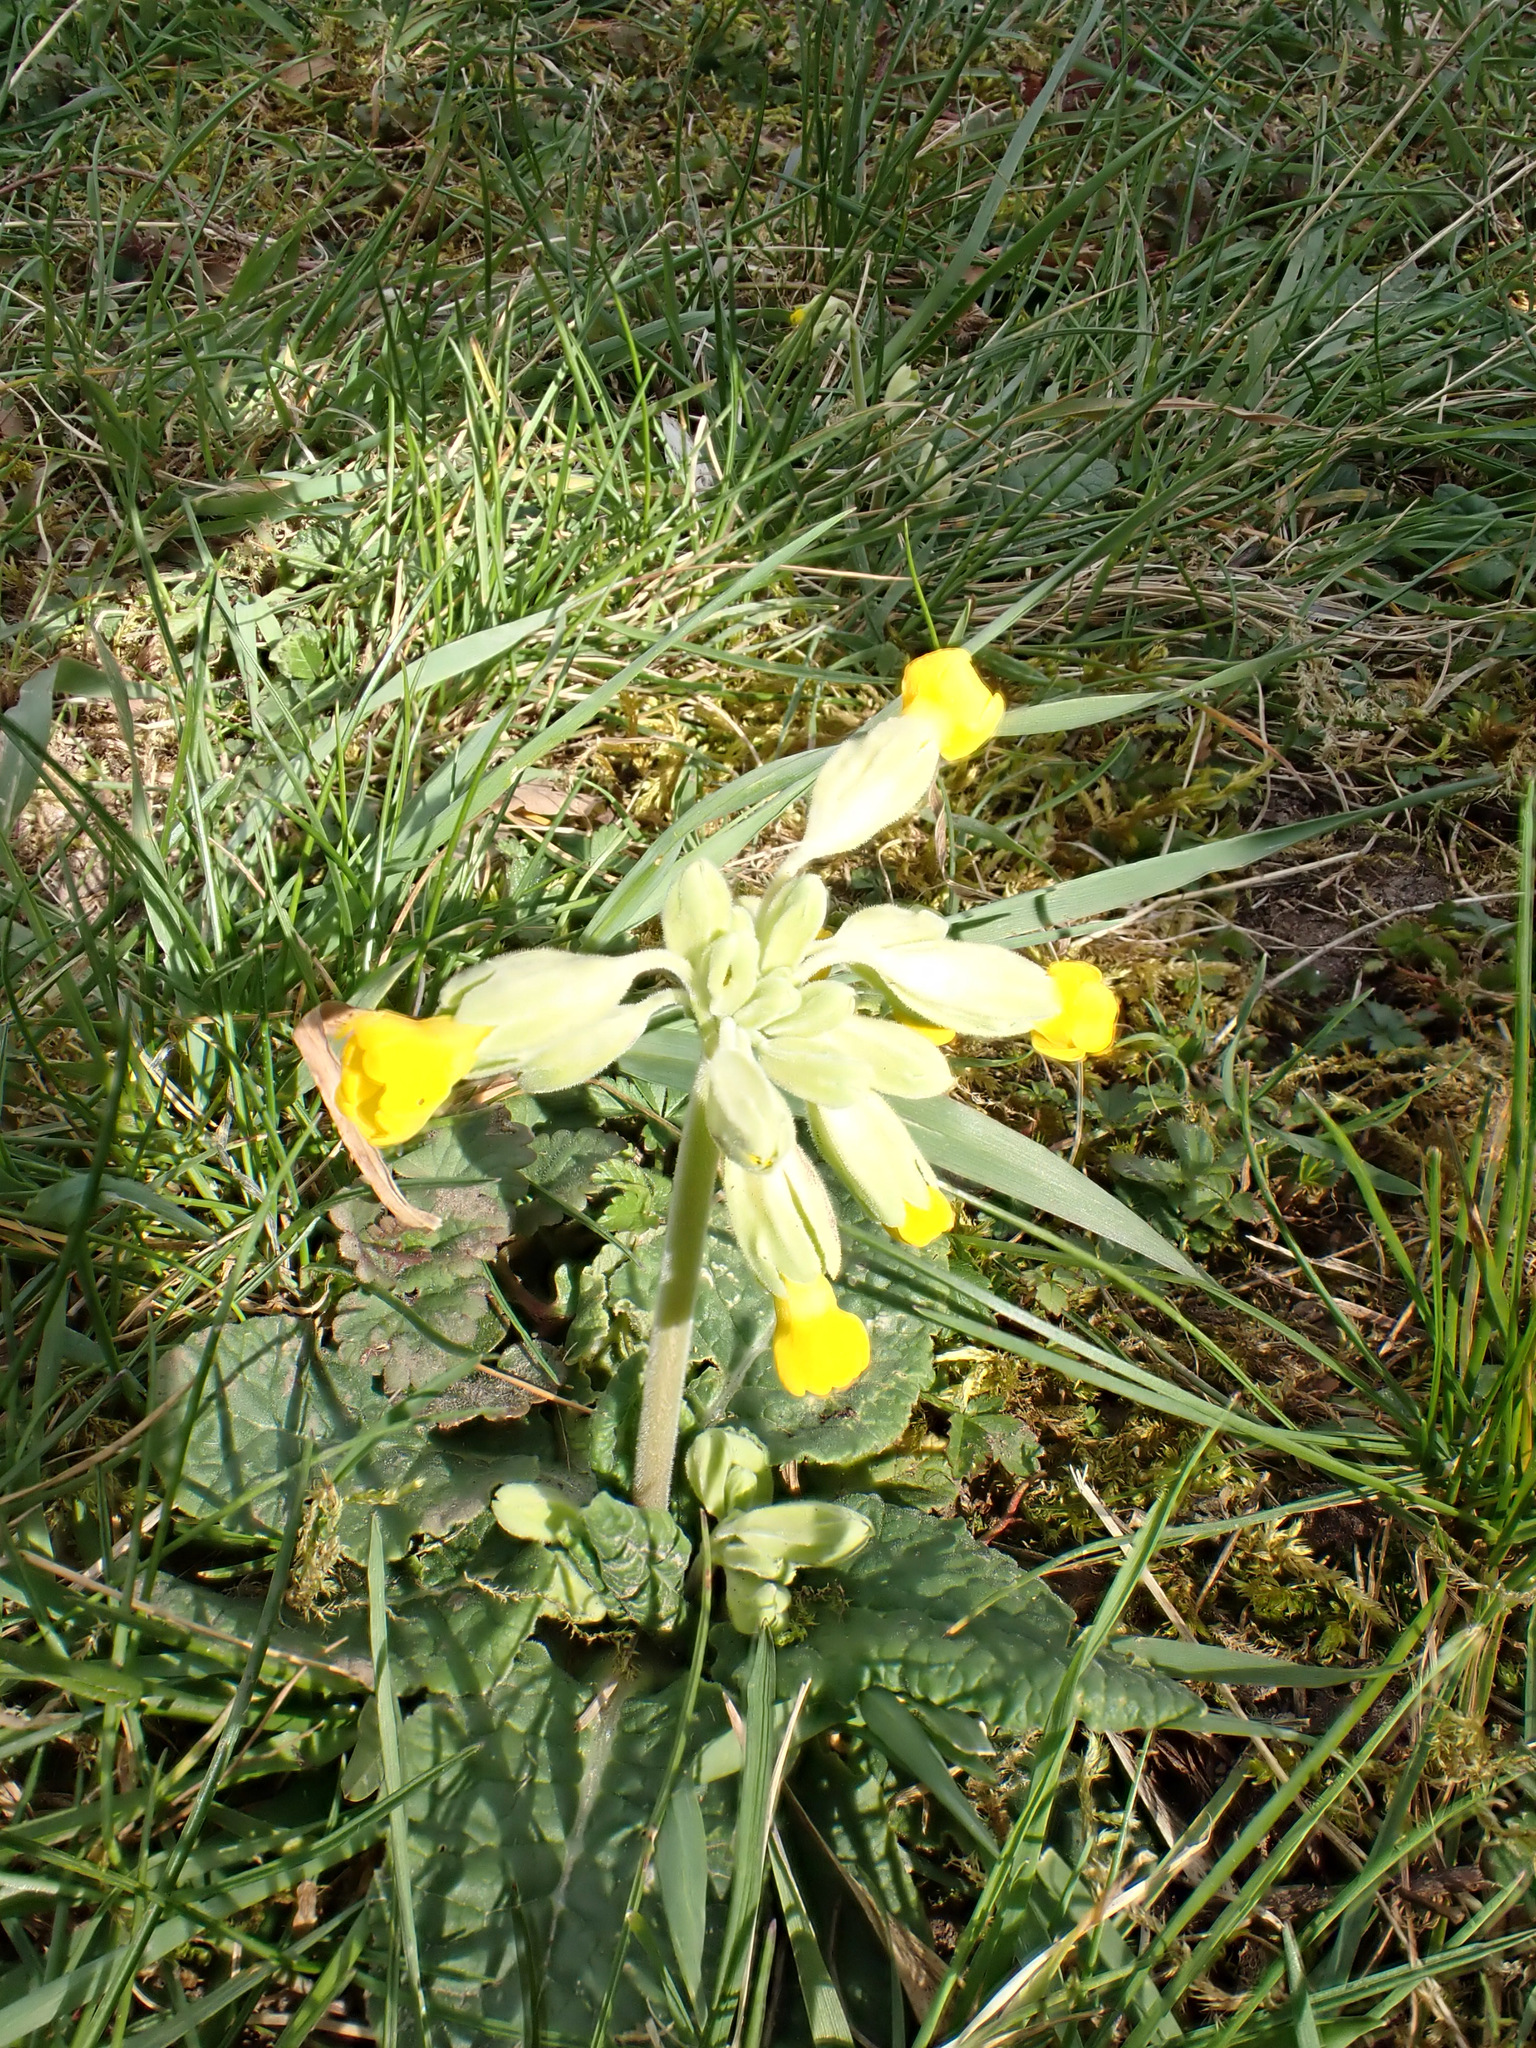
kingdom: Plantae
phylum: Tracheophyta
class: Magnoliopsida
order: Ericales
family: Primulaceae
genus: Primula
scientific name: Primula veris
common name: Cowslip
